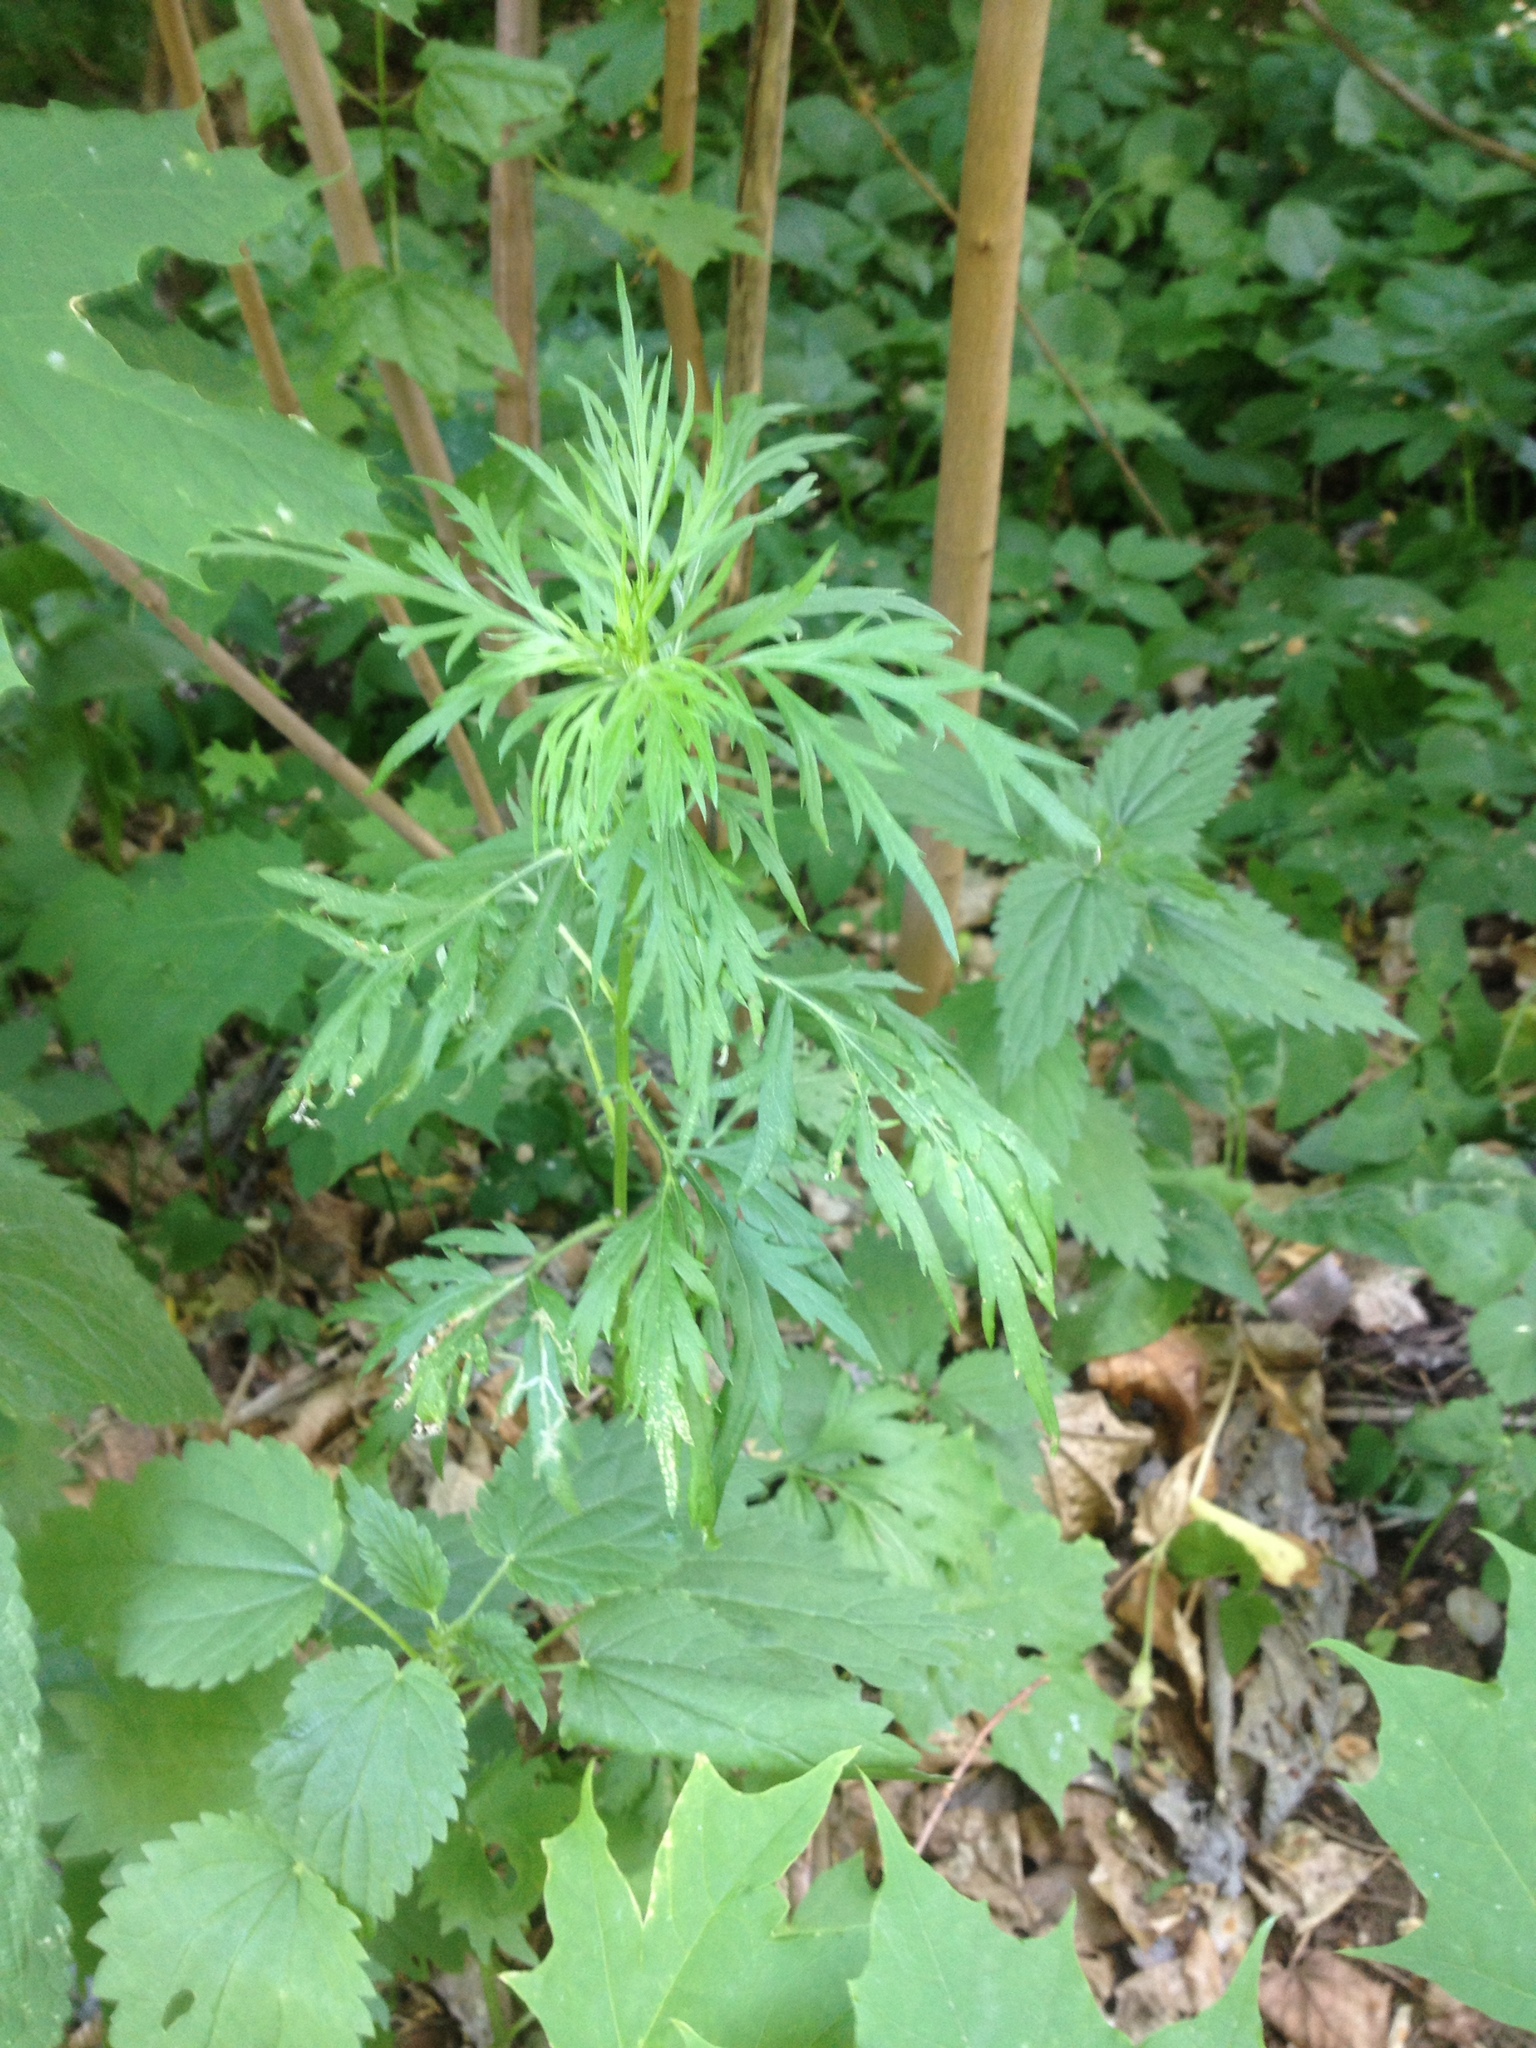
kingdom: Plantae
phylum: Tracheophyta
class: Magnoliopsida
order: Asterales
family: Asteraceae
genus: Artemisia
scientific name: Artemisia vulgaris
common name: Mugwort
